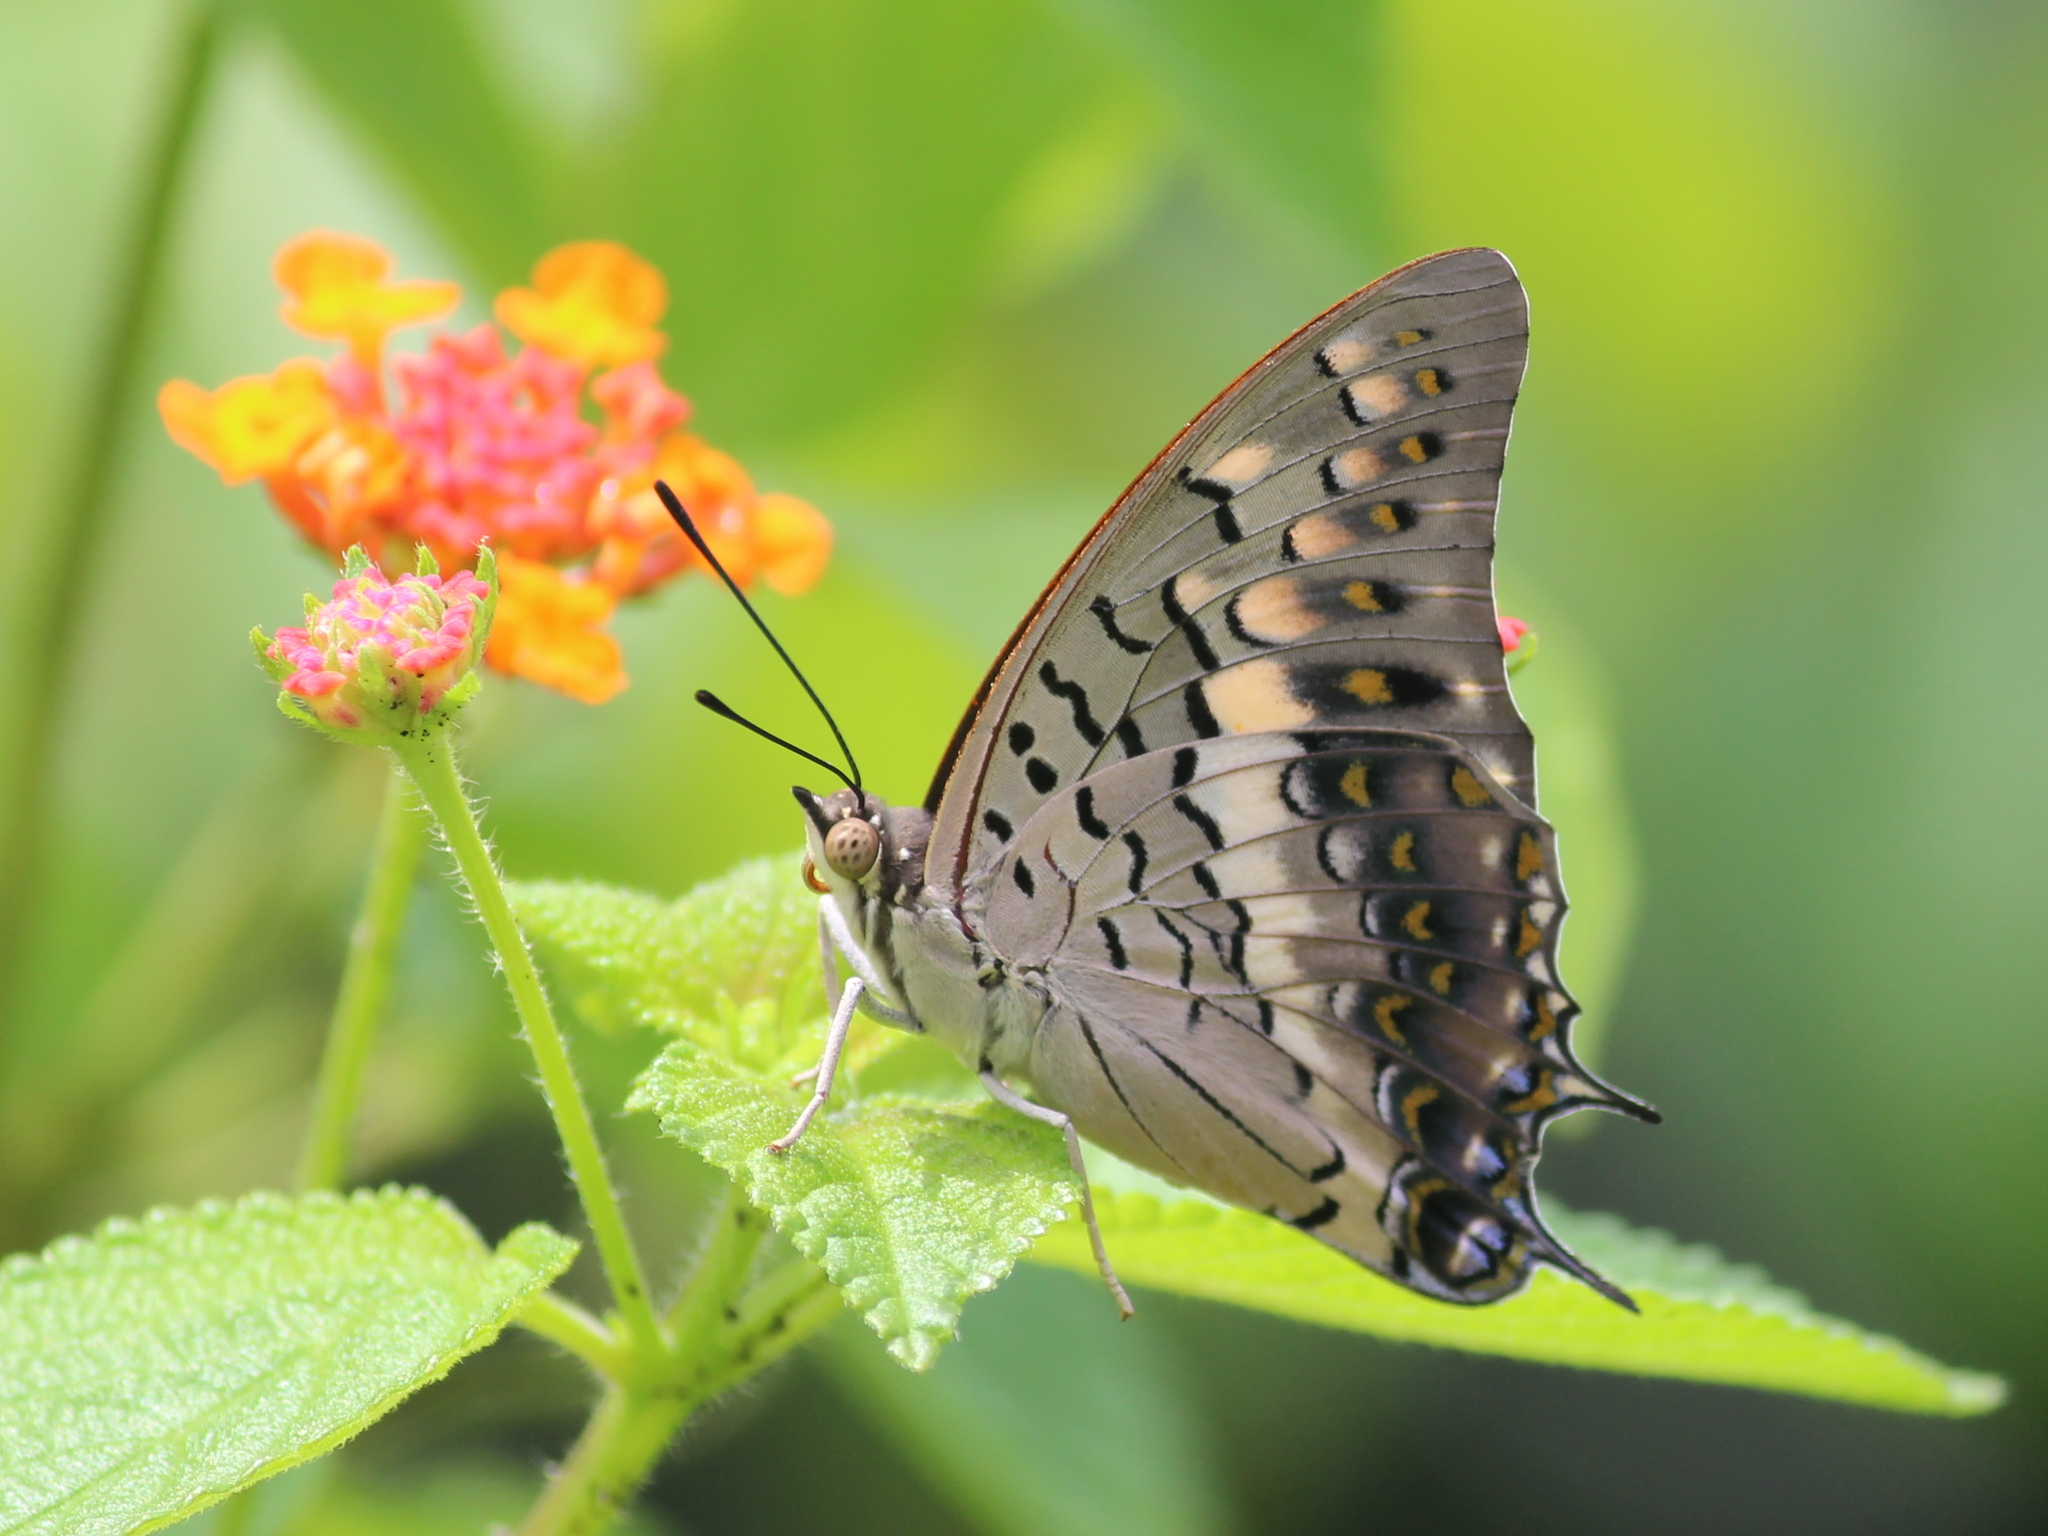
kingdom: Animalia
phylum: Arthropoda
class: Insecta
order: Lepidoptera
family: Nymphalidae
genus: Charaxes
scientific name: Charaxes solon
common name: Black rajah
